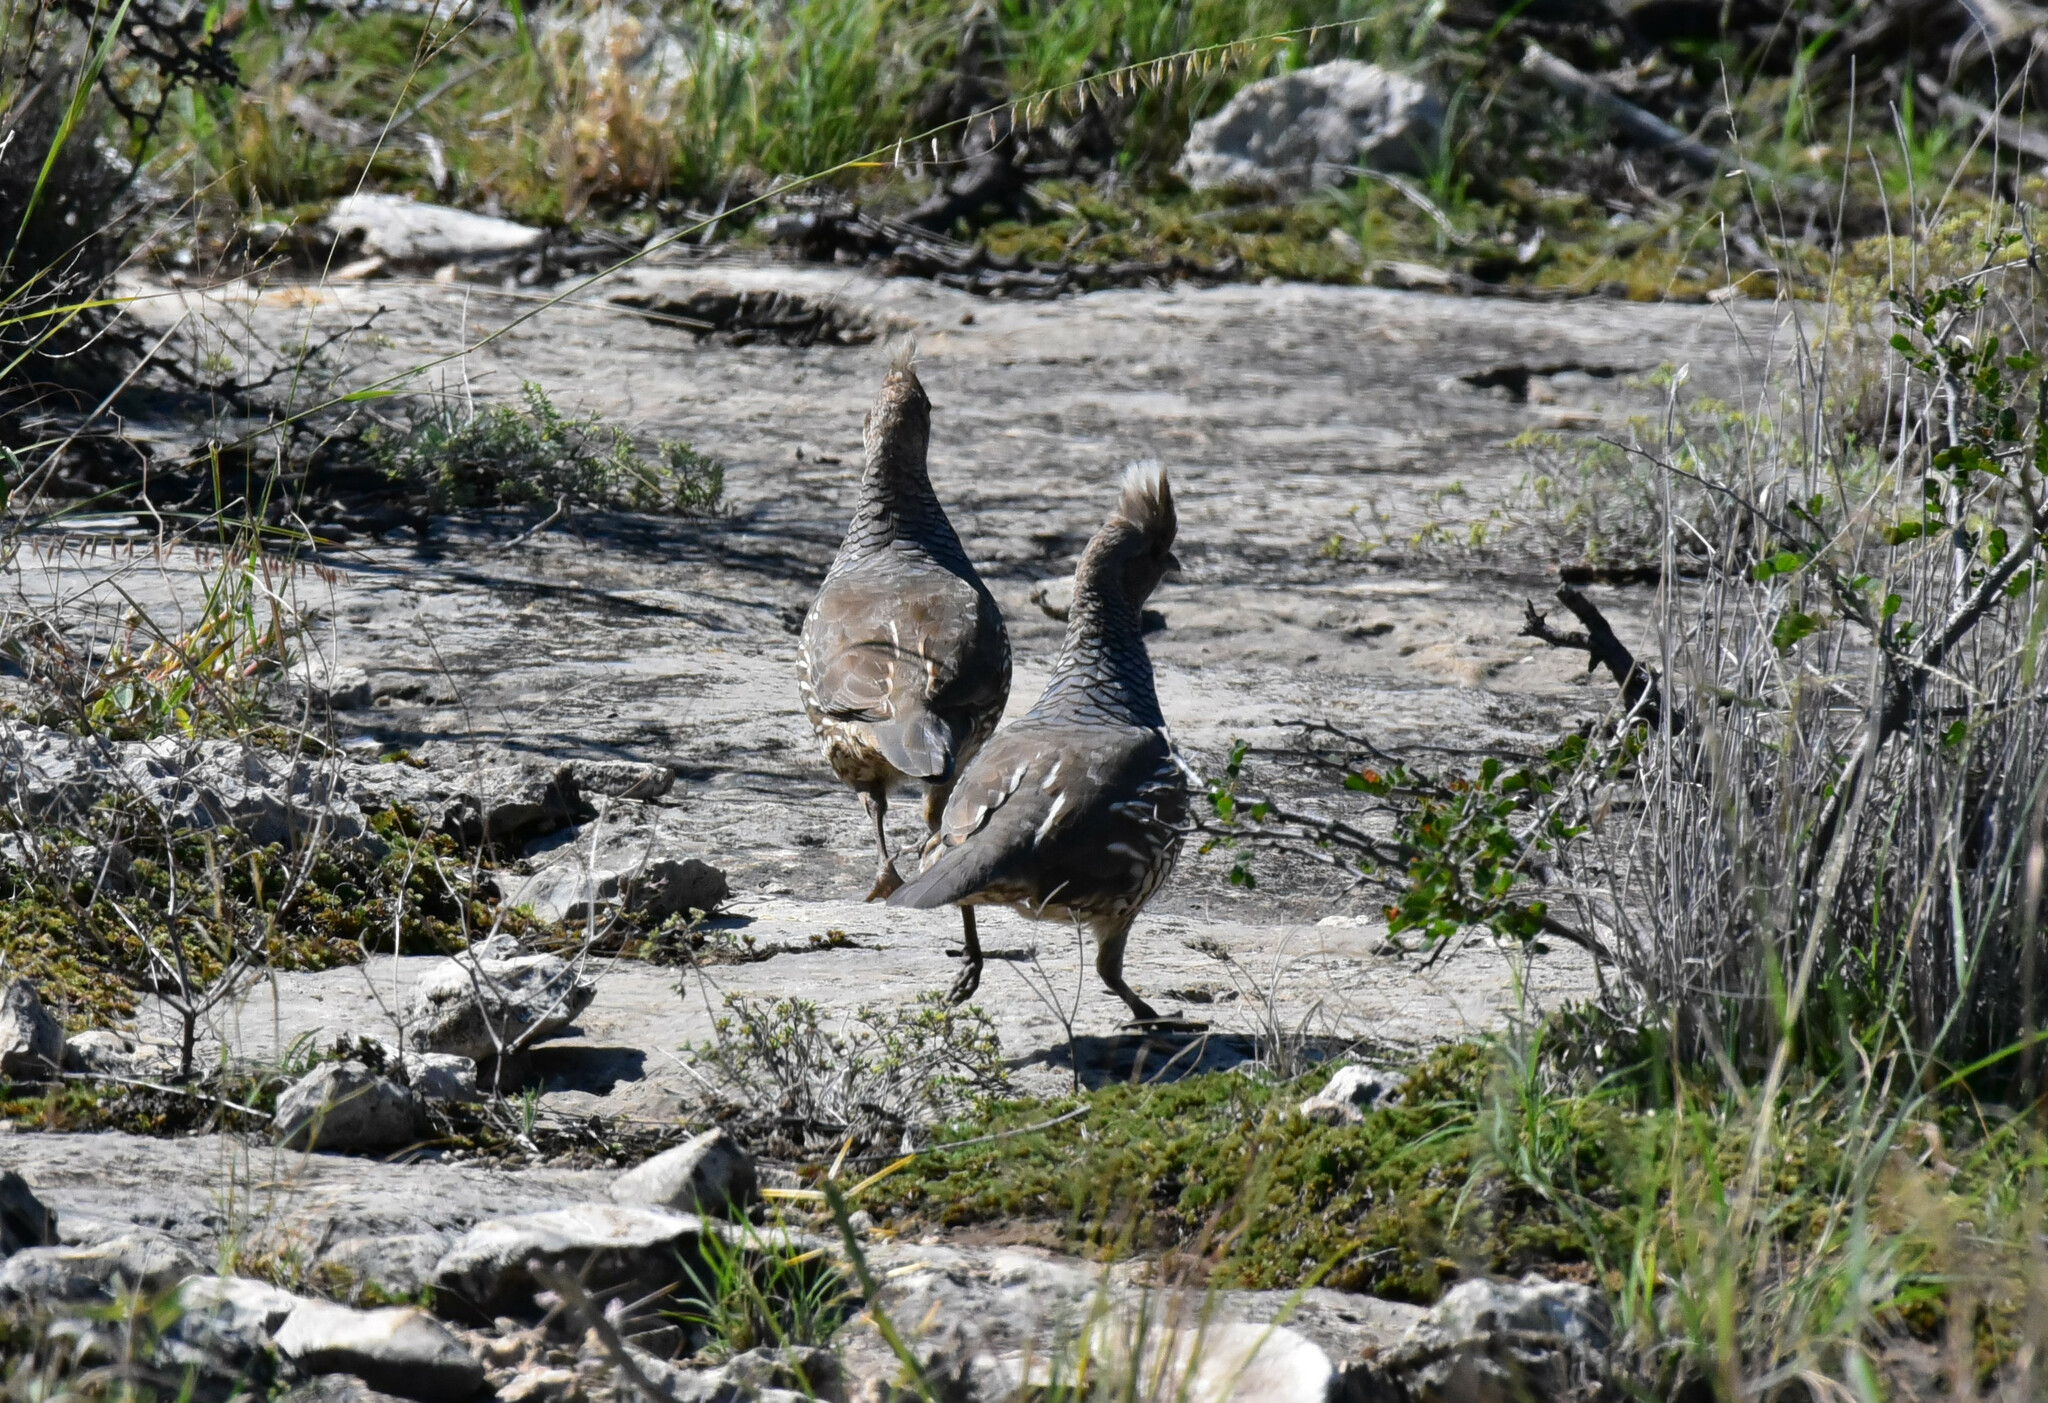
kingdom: Animalia
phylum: Chordata
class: Aves
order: Galliformes
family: Odontophoridae
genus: Callipepla
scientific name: Callipepla squamata
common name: Scaled quail
